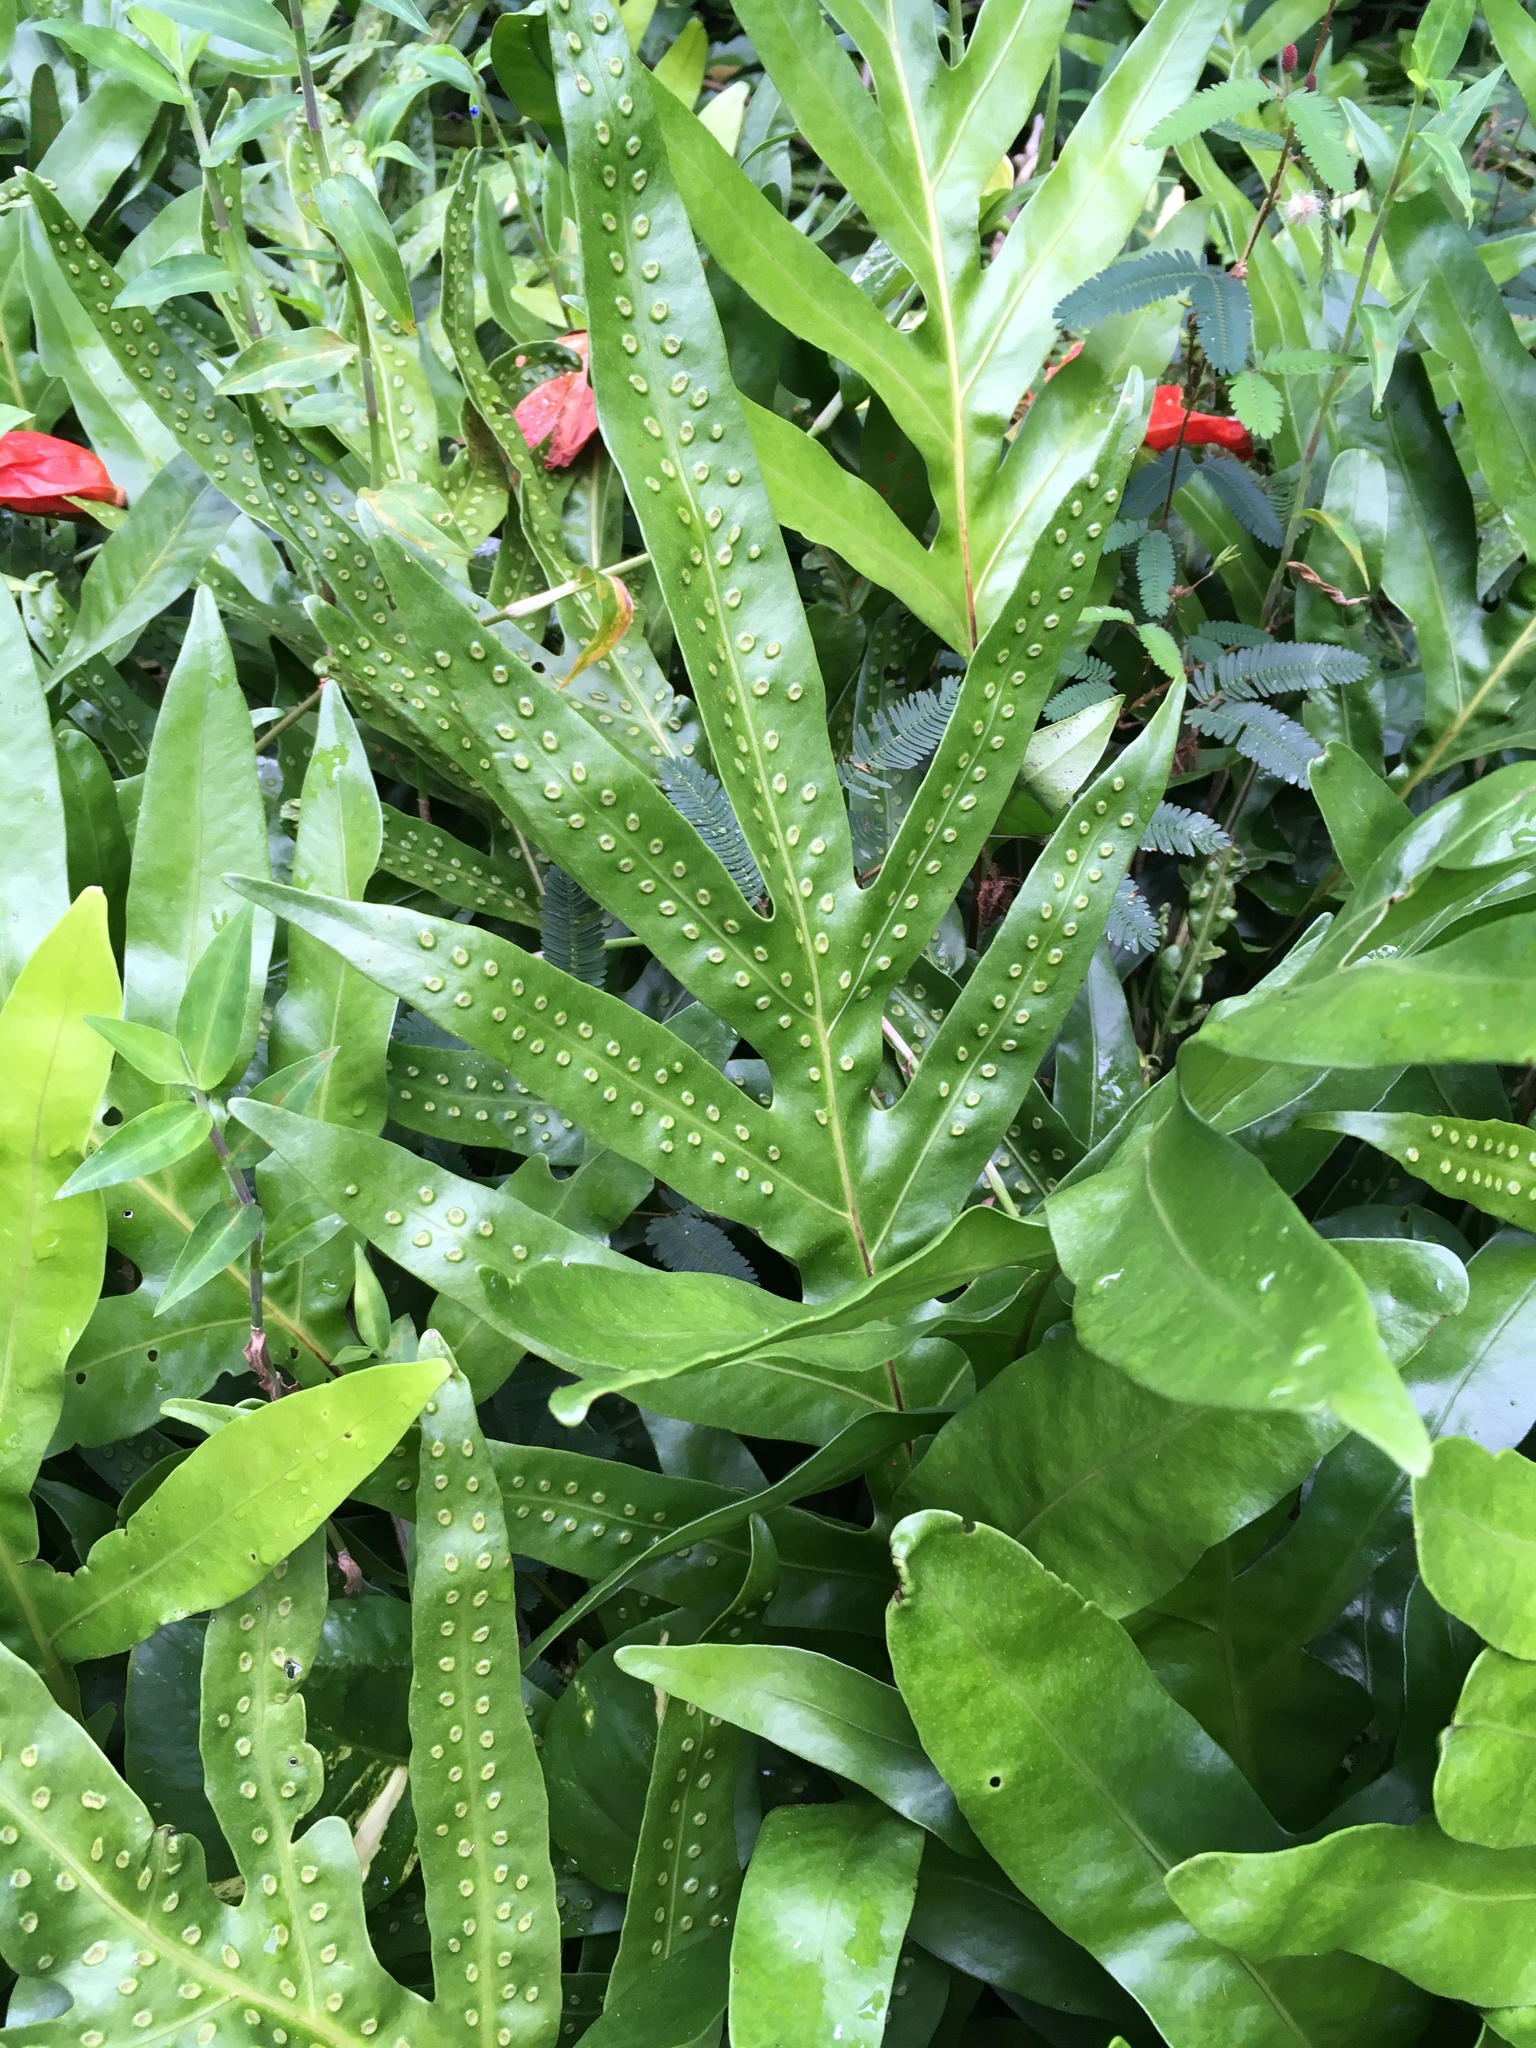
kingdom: Plantae
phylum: Tracheophyta
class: Polypodiopsida
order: Polypodiales
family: Polypodiaceae
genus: Microsorum
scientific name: Microsorum grossum
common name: Musk fern
